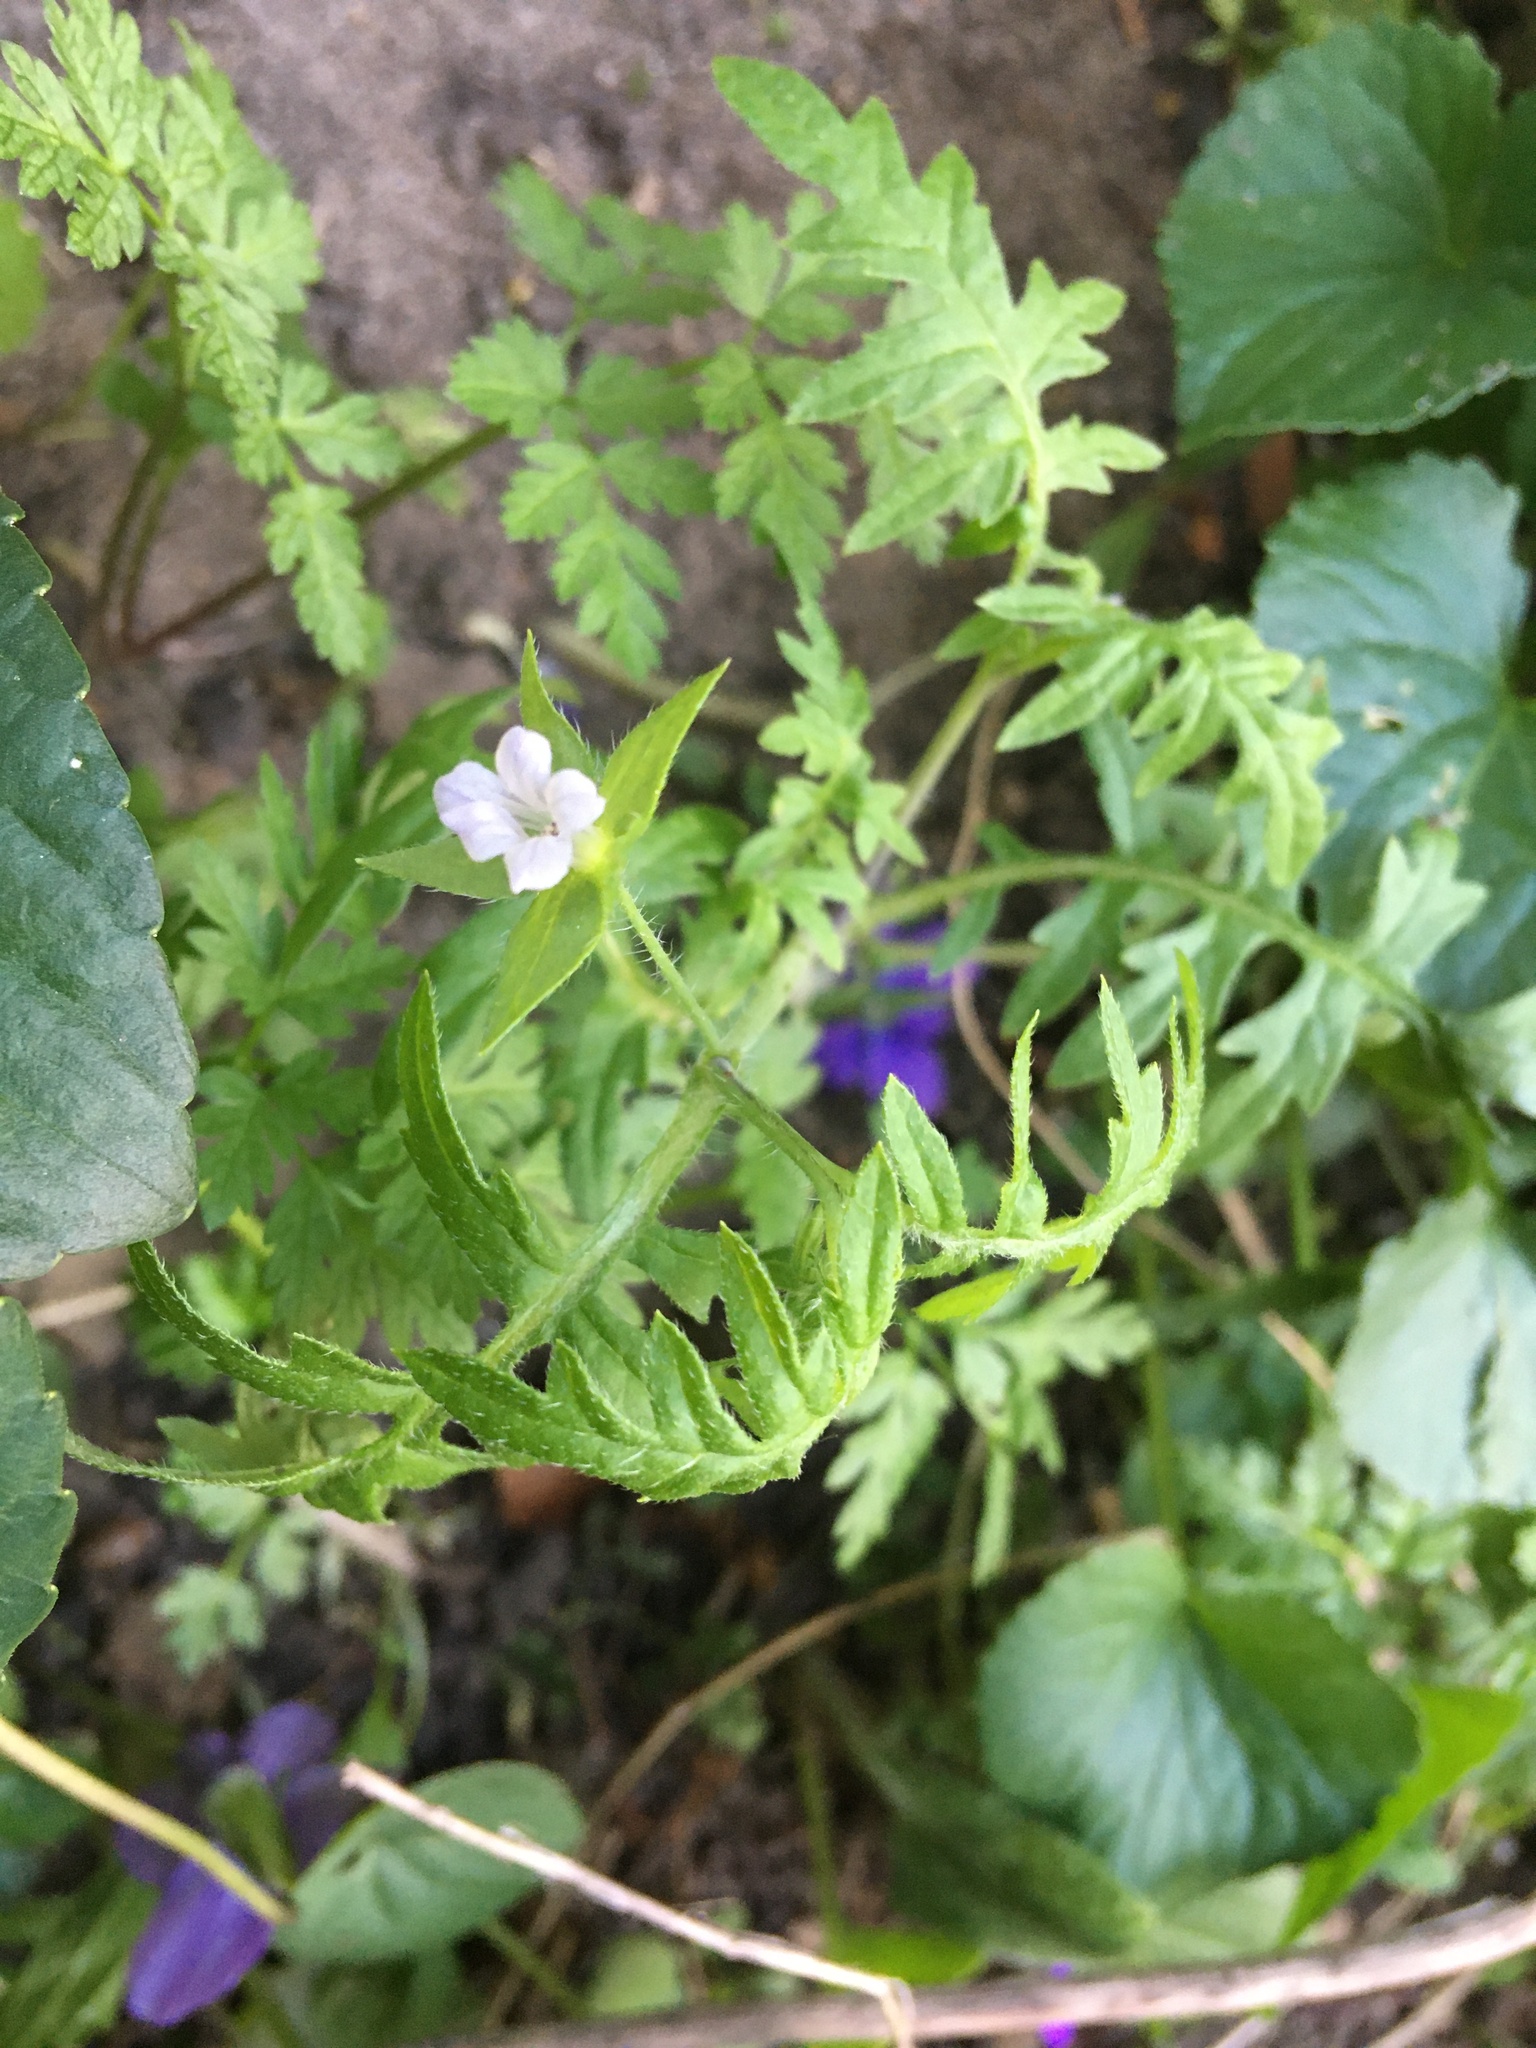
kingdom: Plantae
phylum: Tracheophyta
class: Magnoliopsida
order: Boraginales
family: Hydrophyllaceae
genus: Ellisia
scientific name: Ellisia nyctelea
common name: Aunt lucy
